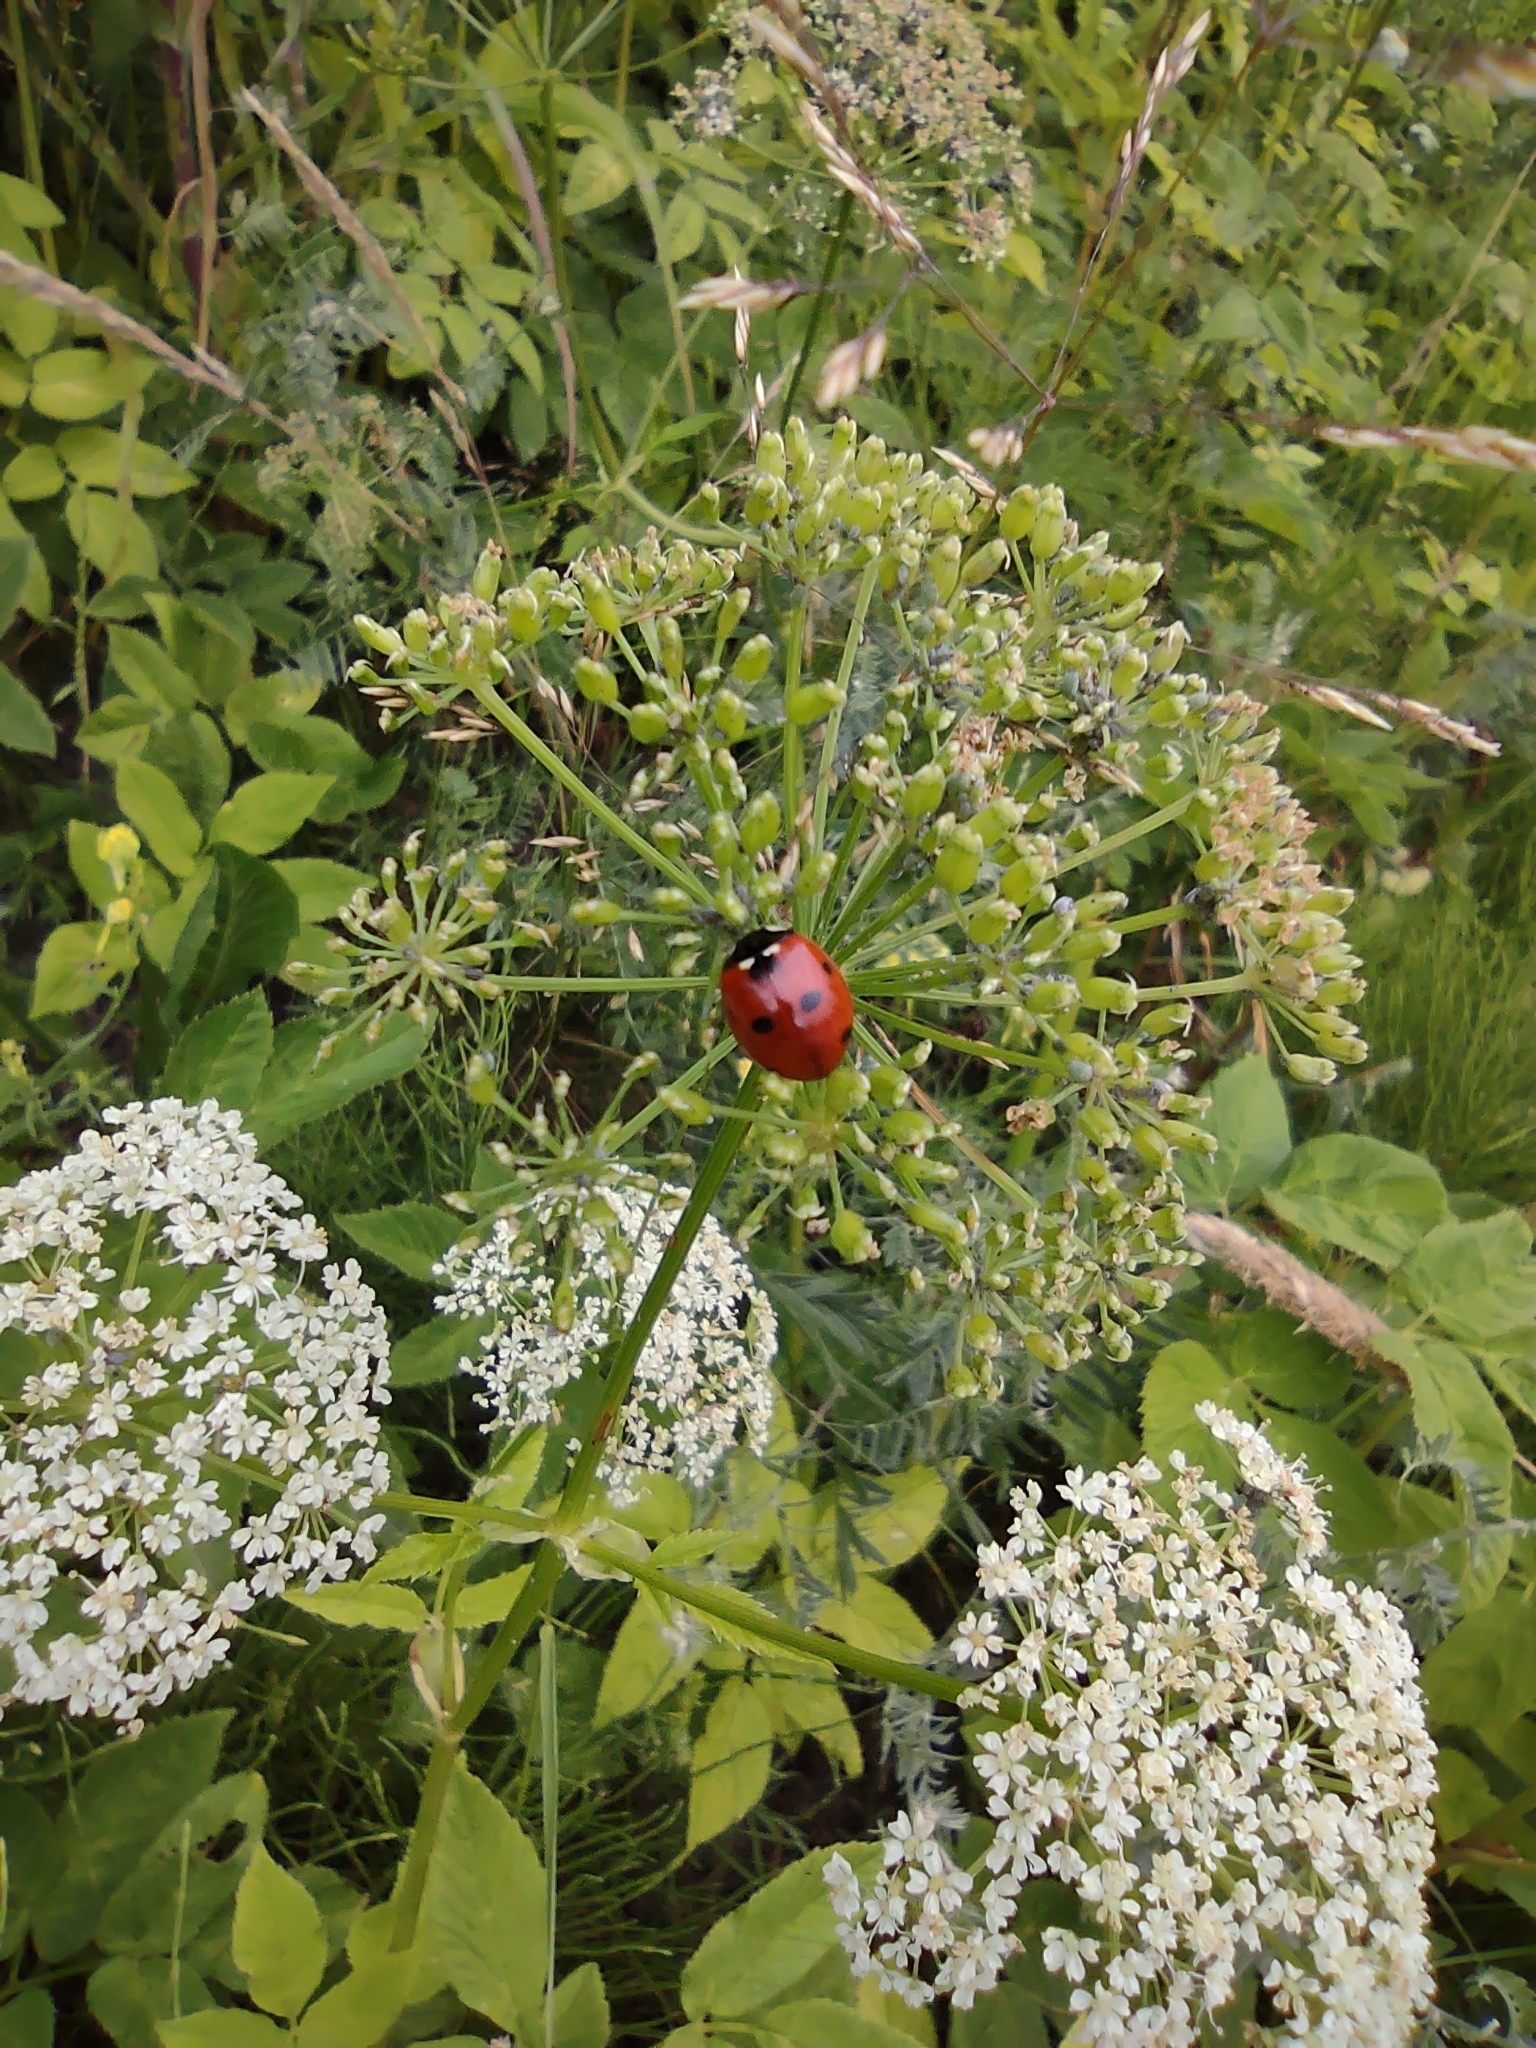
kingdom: Animalia
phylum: Arthropoda
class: Insecta
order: Coleoptera
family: Coccinellidae
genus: Coccinella
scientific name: Coccinella septempunctata
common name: Sevenspotted lady beetle
